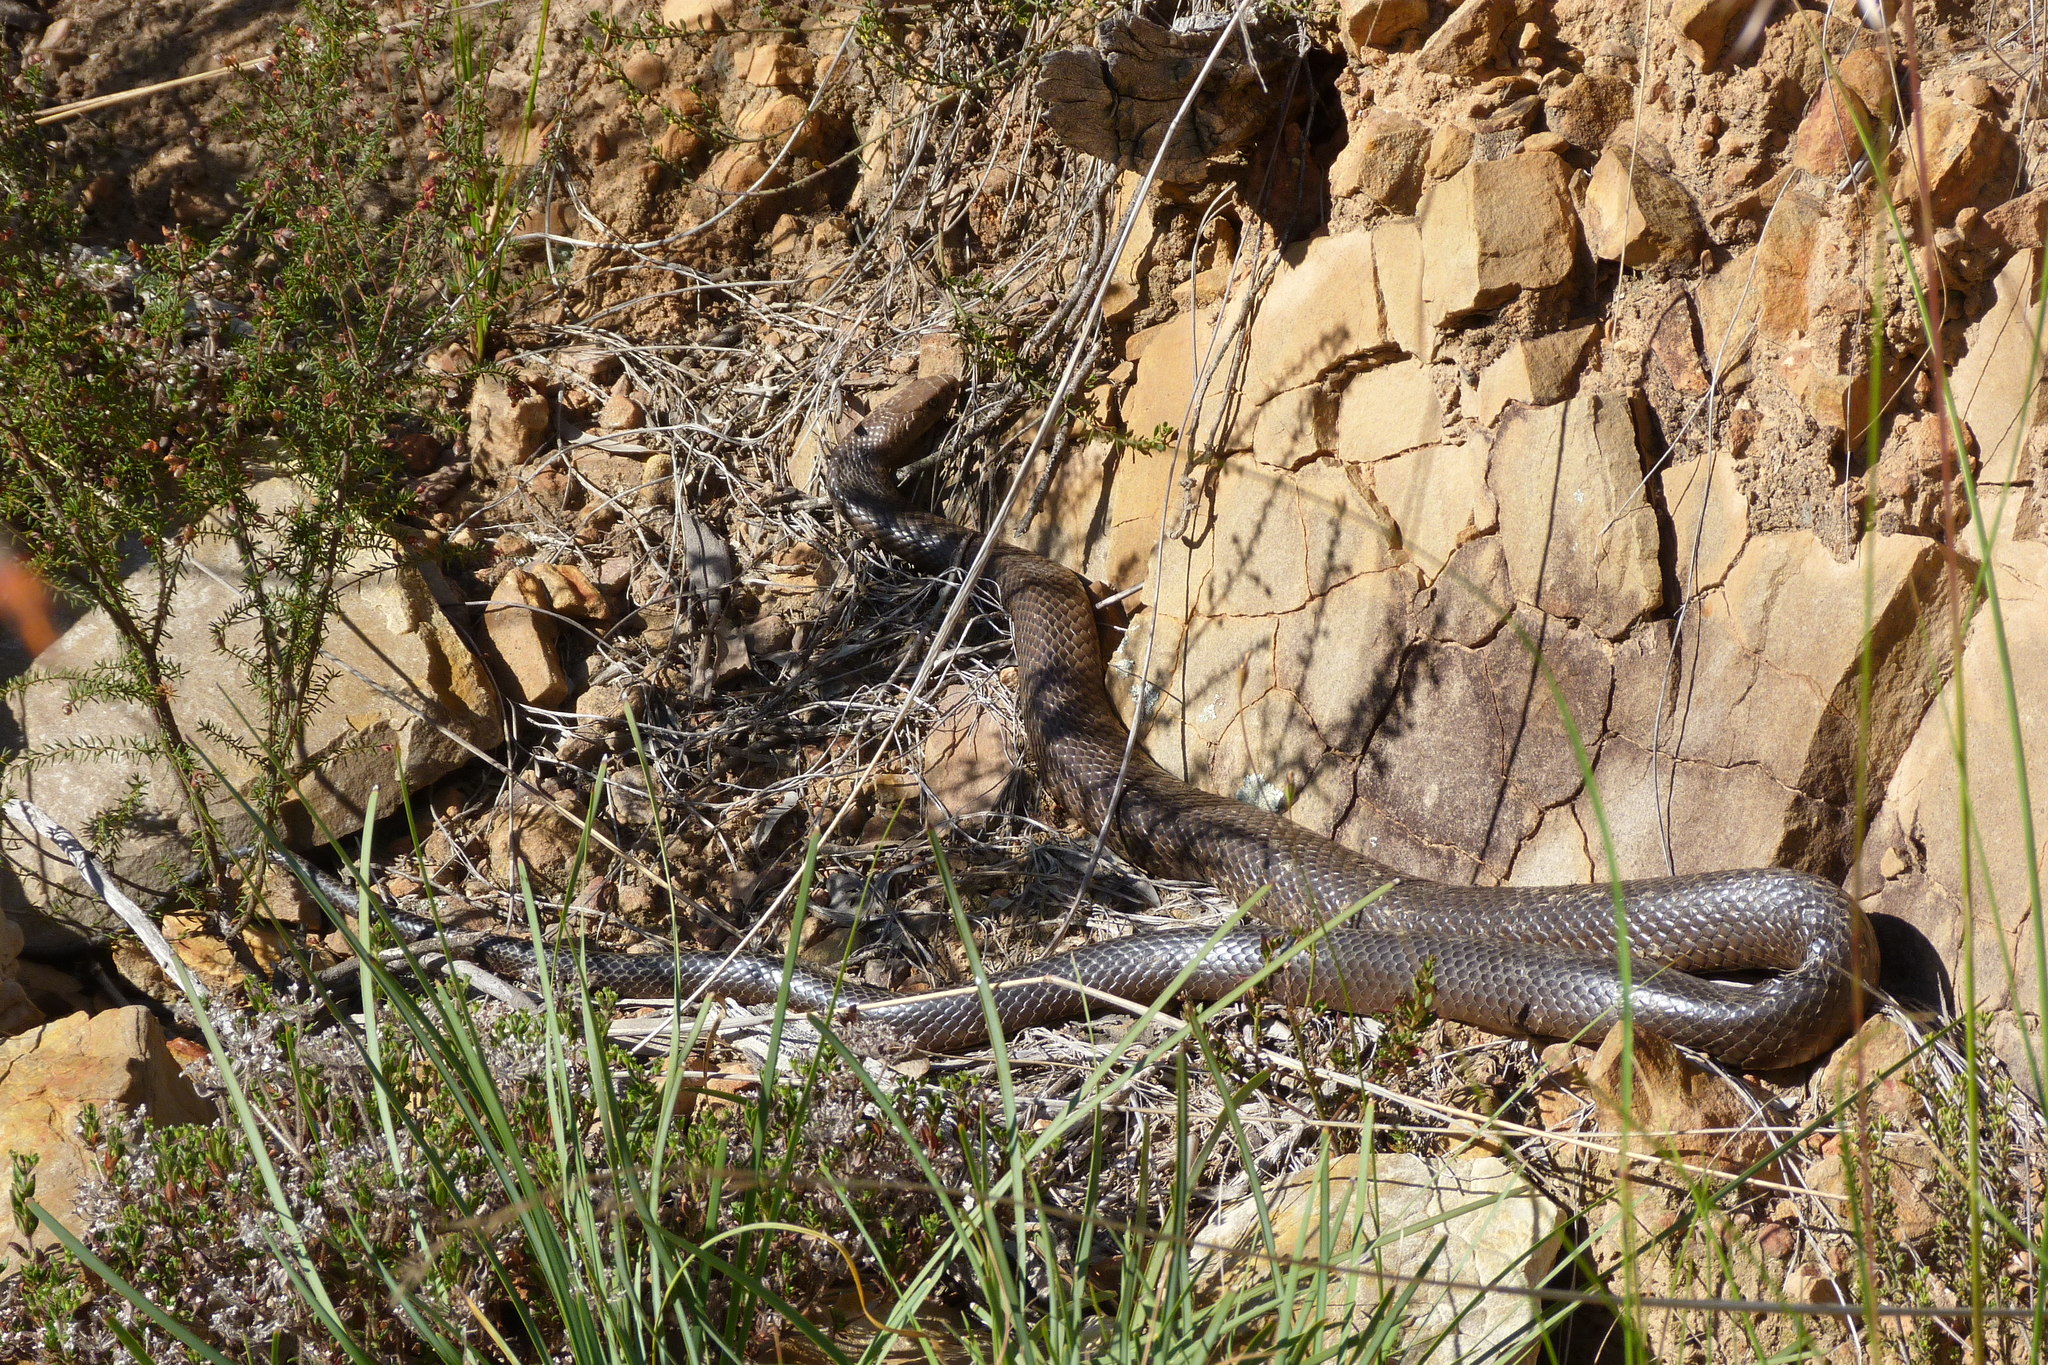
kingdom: Animalia
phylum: Chordata
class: Squamata
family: Elapidae
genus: Pseudonaja
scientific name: Pseudonaja textilis
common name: Eastern brown snake
